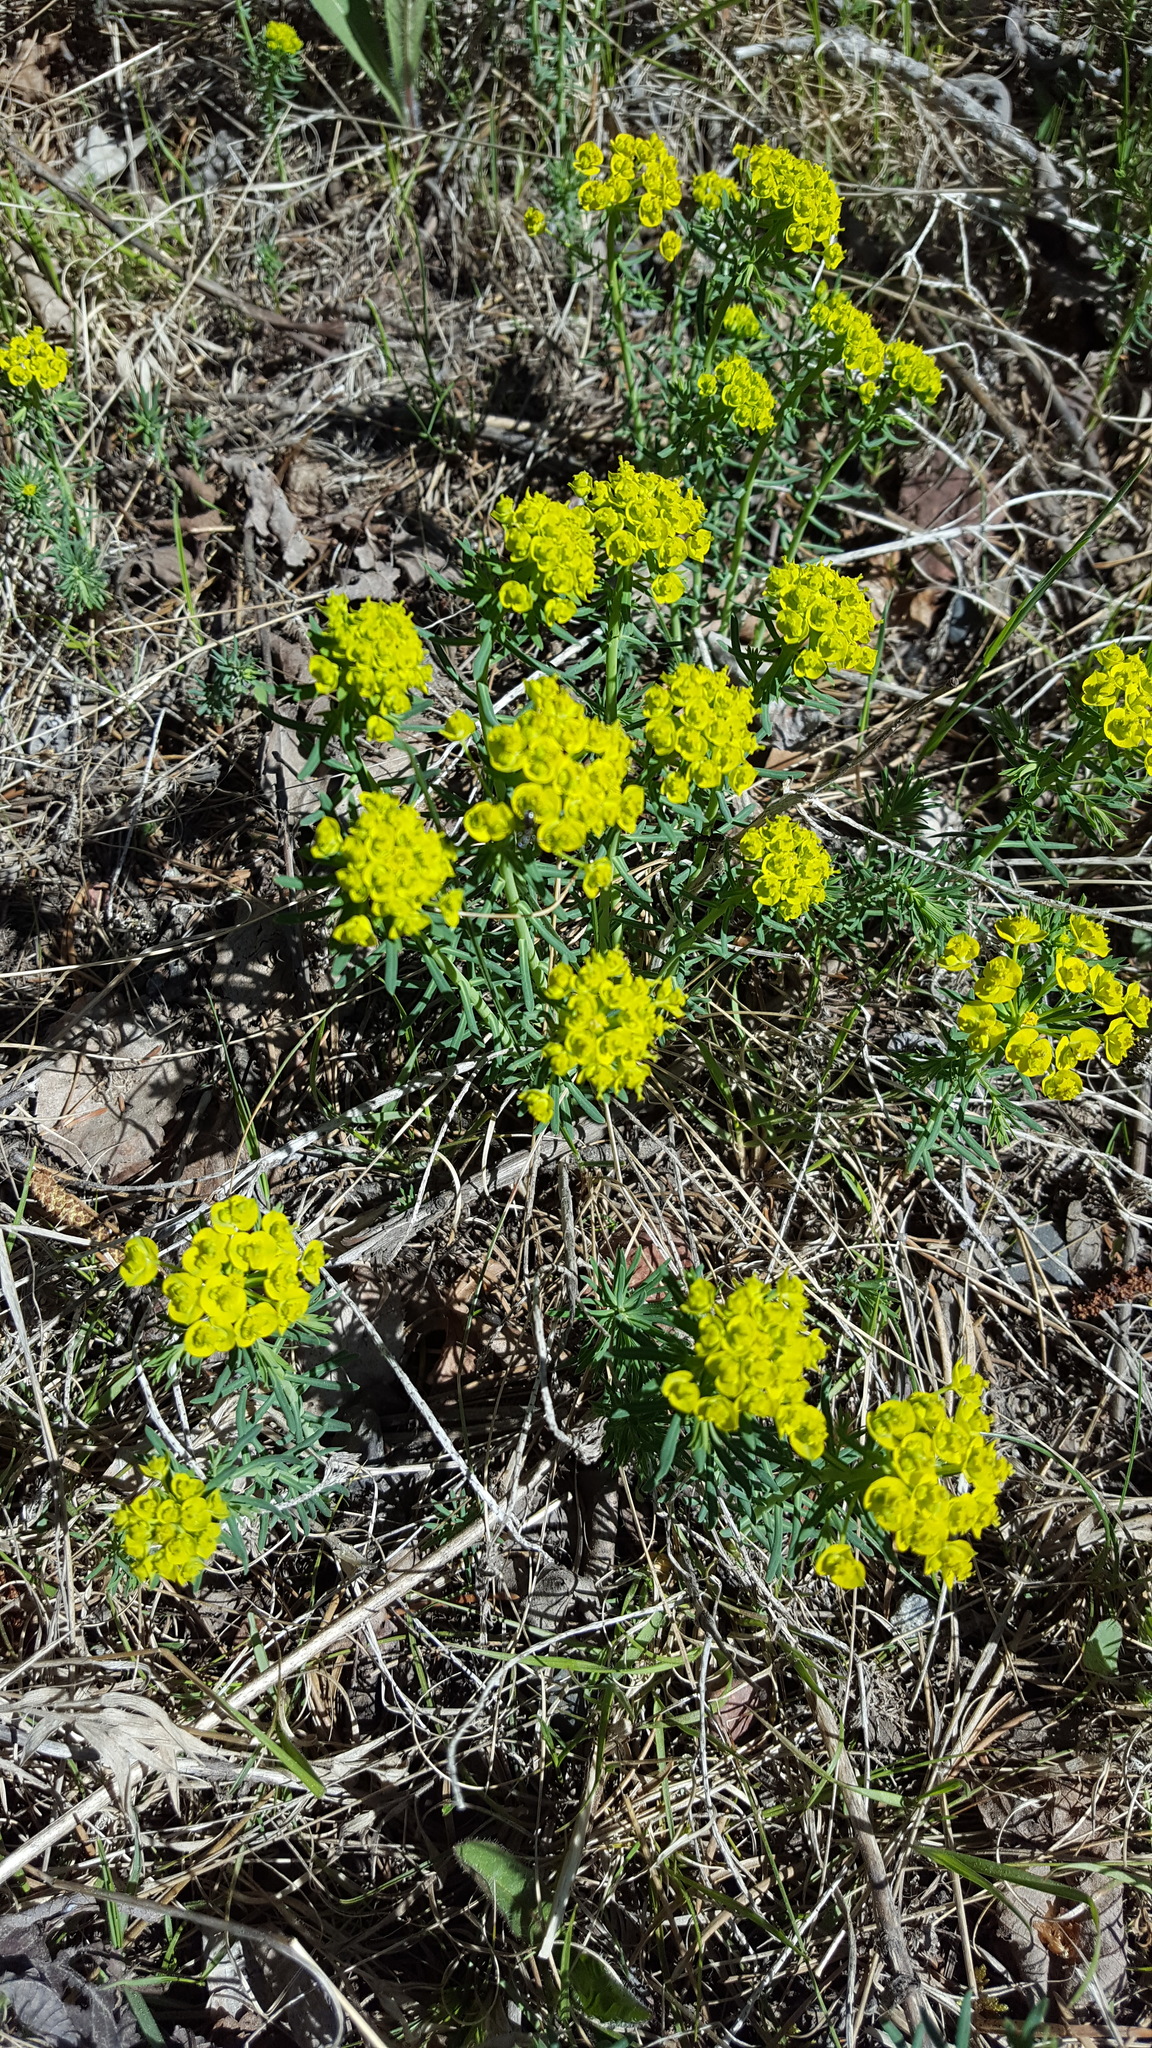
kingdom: Plantae
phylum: Tracheophyta
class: Magnoliopsida
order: Malpighiales
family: Euphorbiaceae
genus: Euphorbia
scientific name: Euphorbia cyparissias
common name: Cypress spurge
